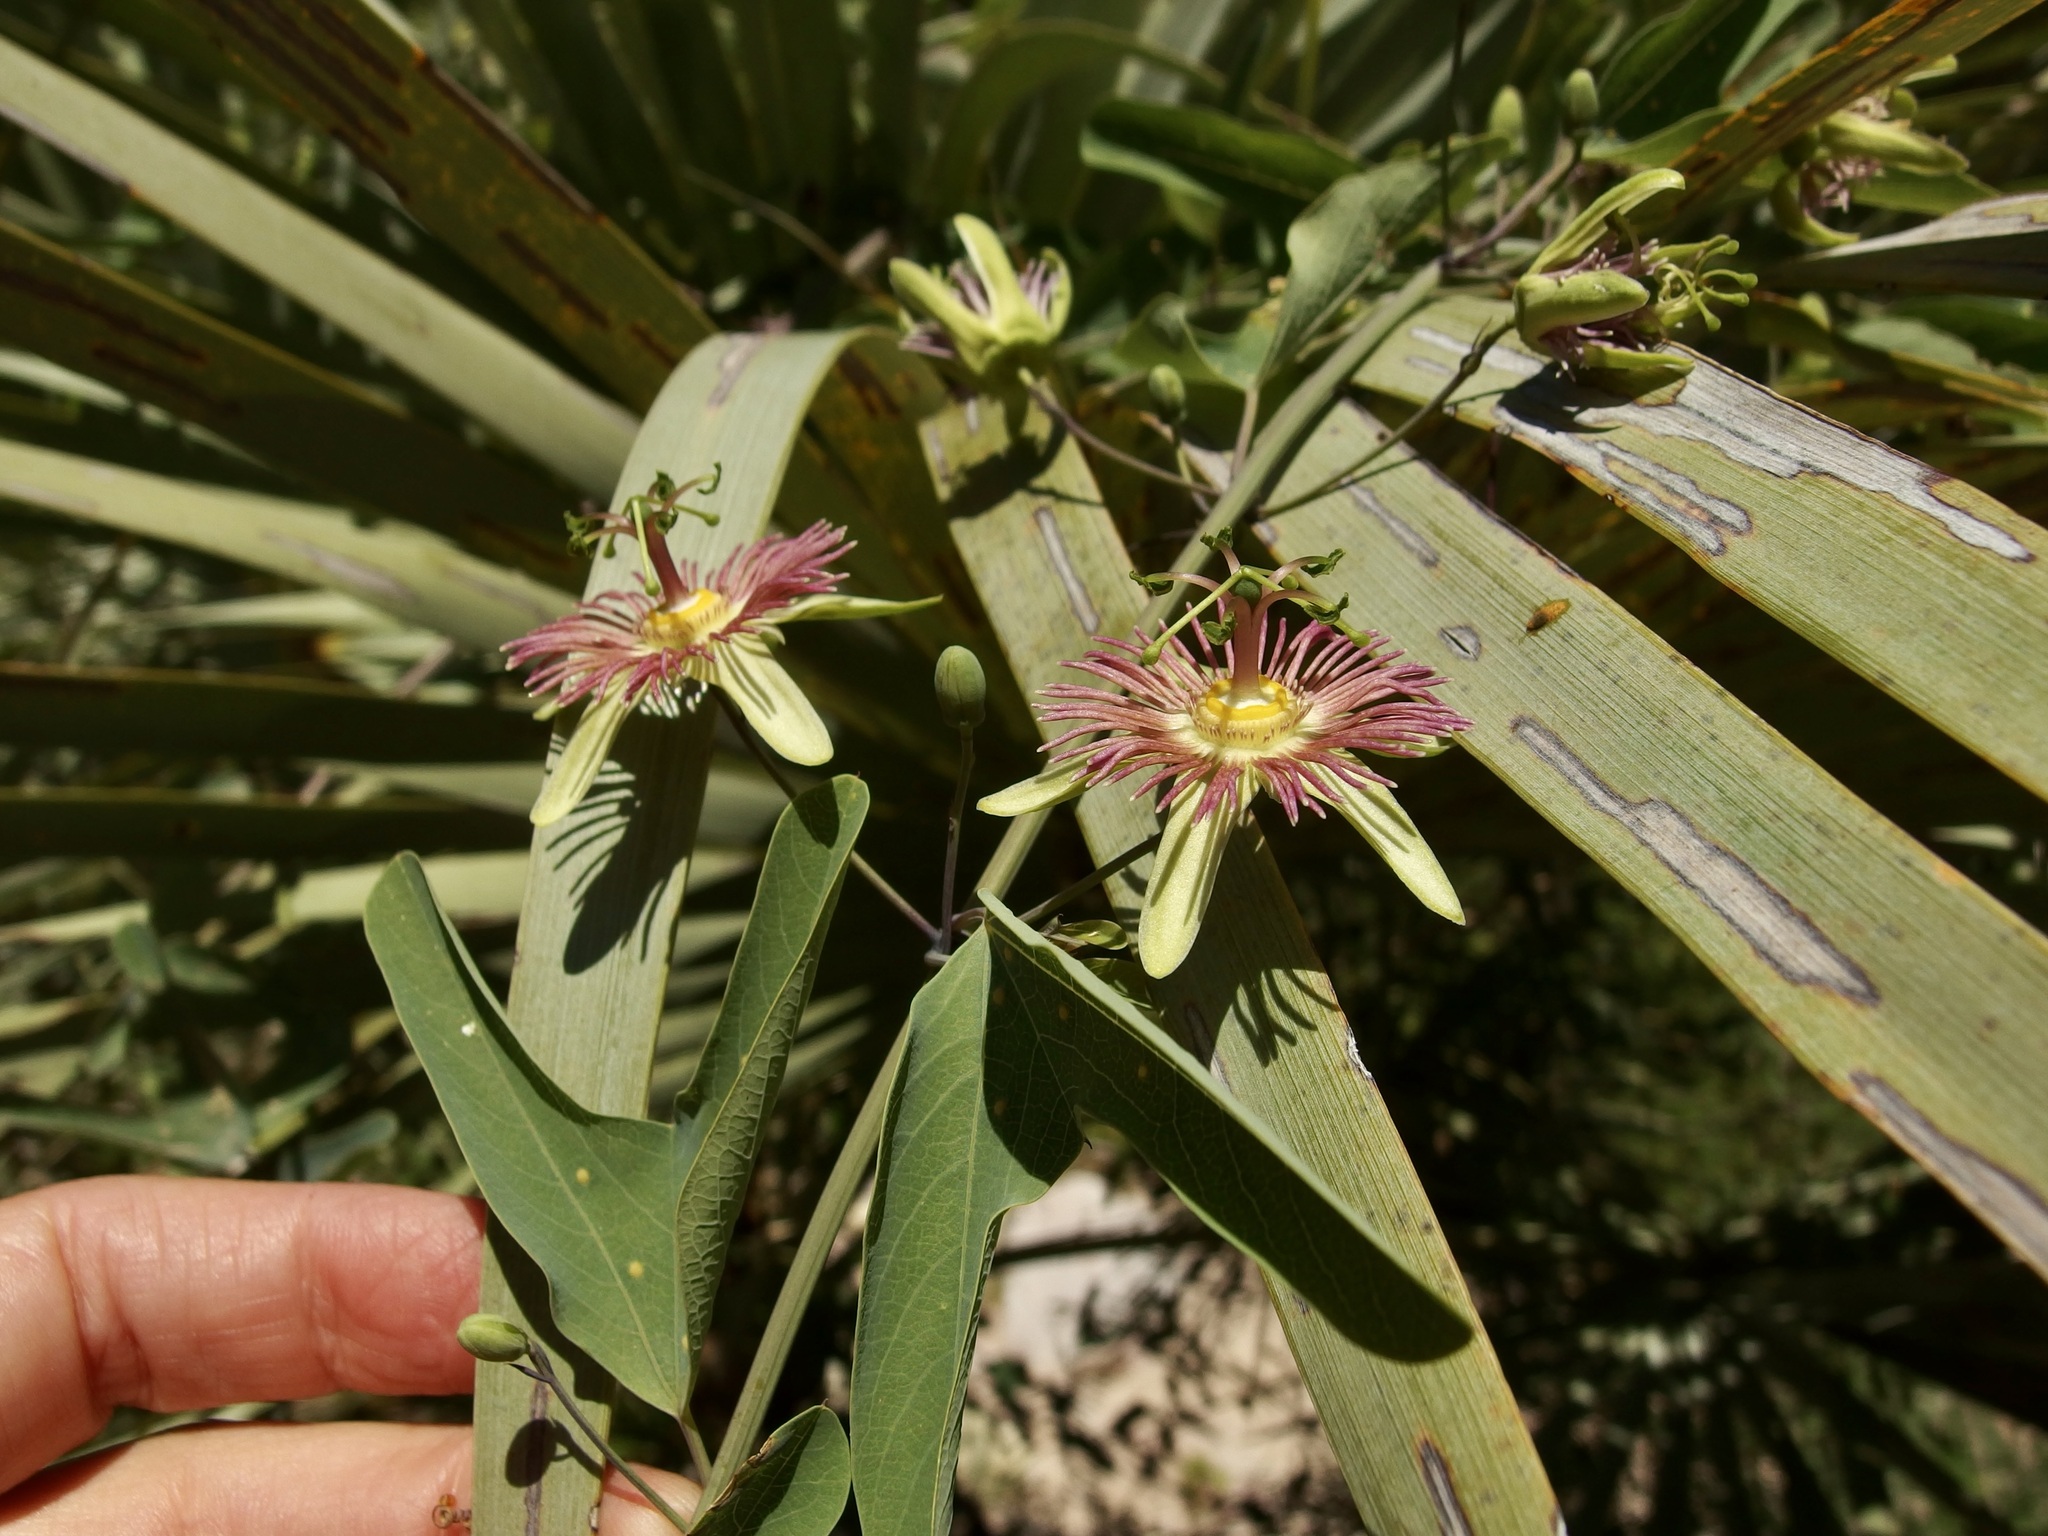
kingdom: Plantae
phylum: Tracheophyta
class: Magnoliopsida
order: Malpighiales
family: Passifloraceae
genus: Passiflora
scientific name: Passiflora mexicana
